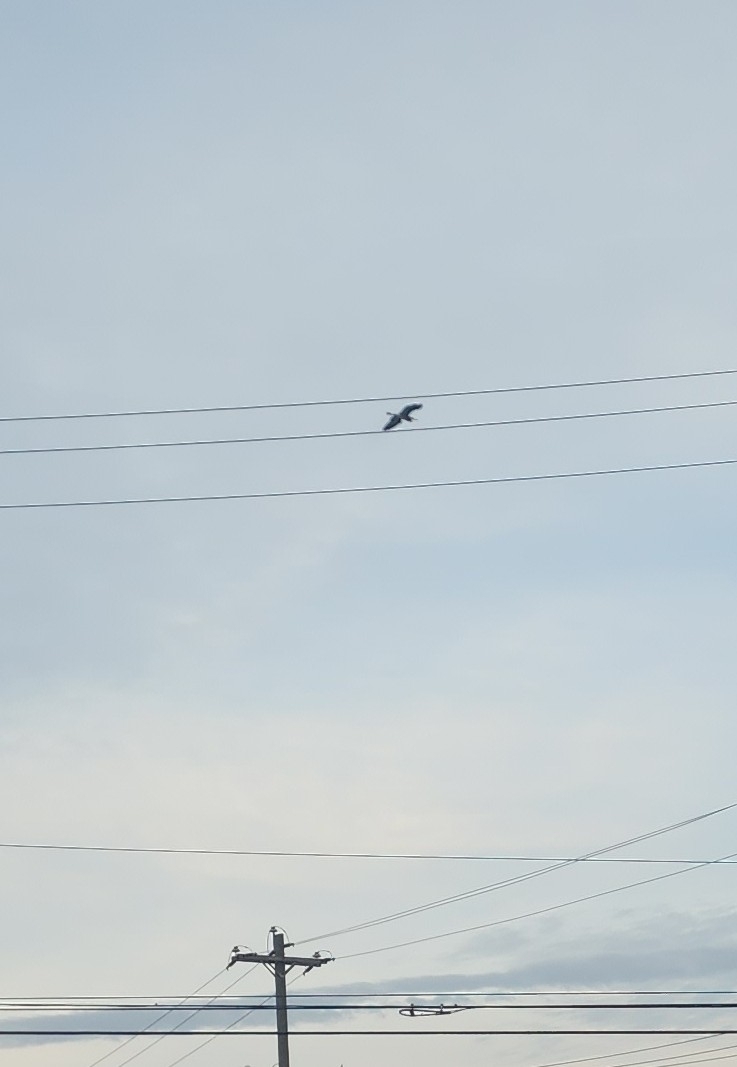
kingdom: Animalia
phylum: Chordata
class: Aves
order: Pelecaniformes
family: Ardeidae
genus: Ardea
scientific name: Ardea herodias
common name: Great blue heron
